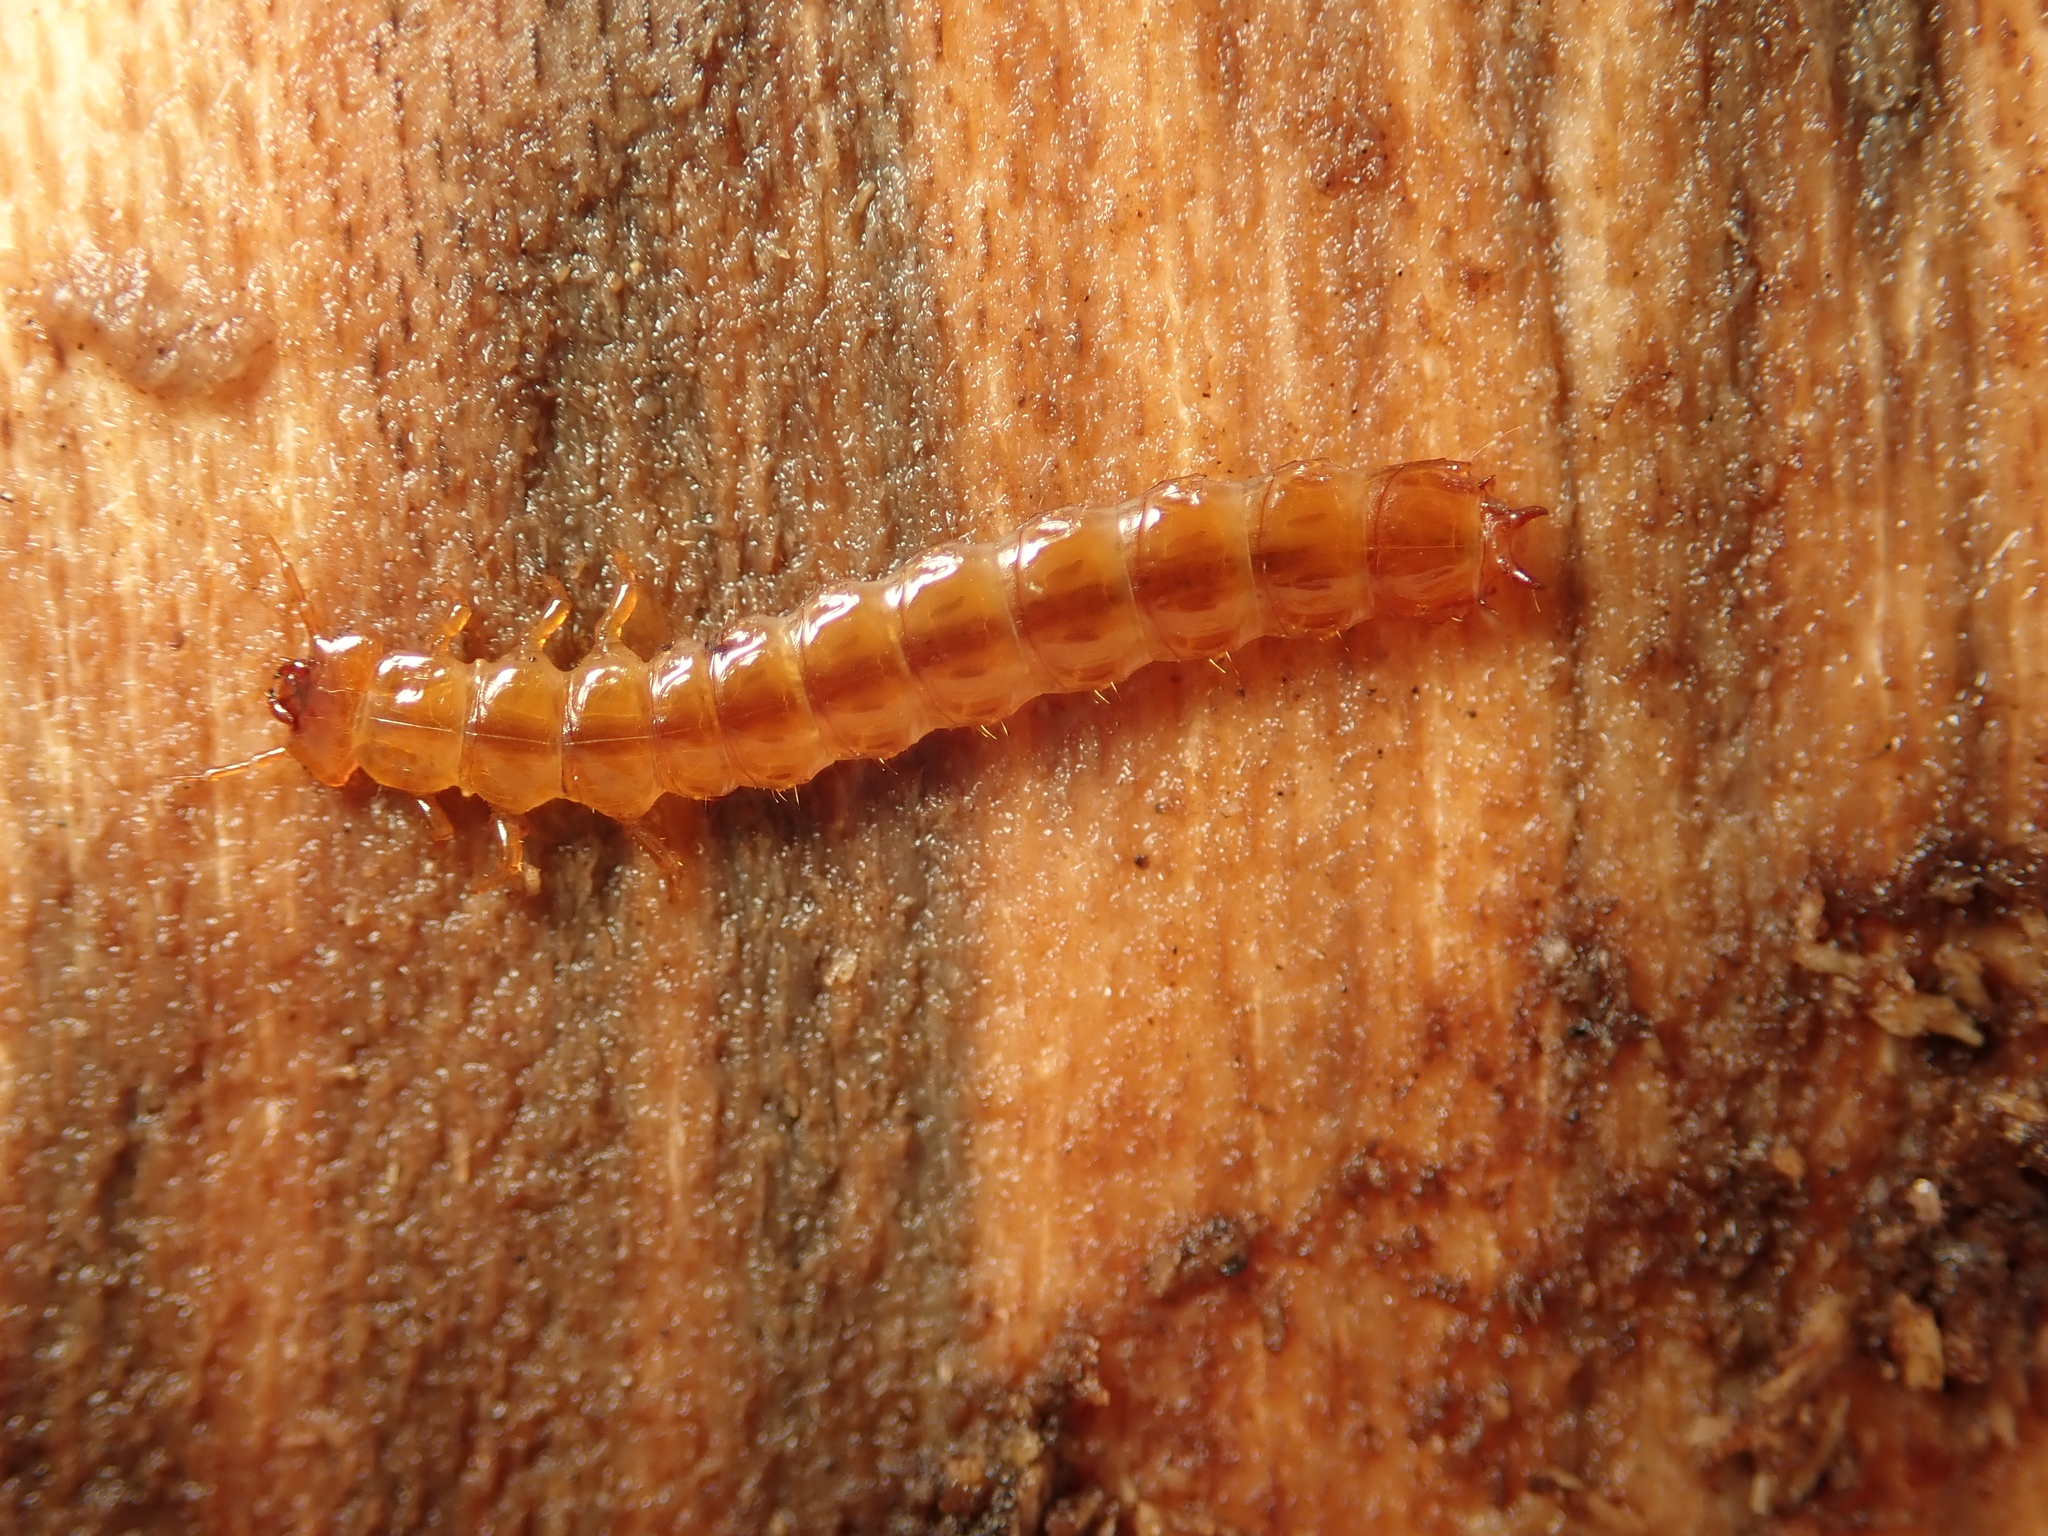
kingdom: Animalia
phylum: Arthropoda
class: Insecta
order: Coleoptera
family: Cucujidae
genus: Cucujus
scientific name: Cucujus cinnaberinus
